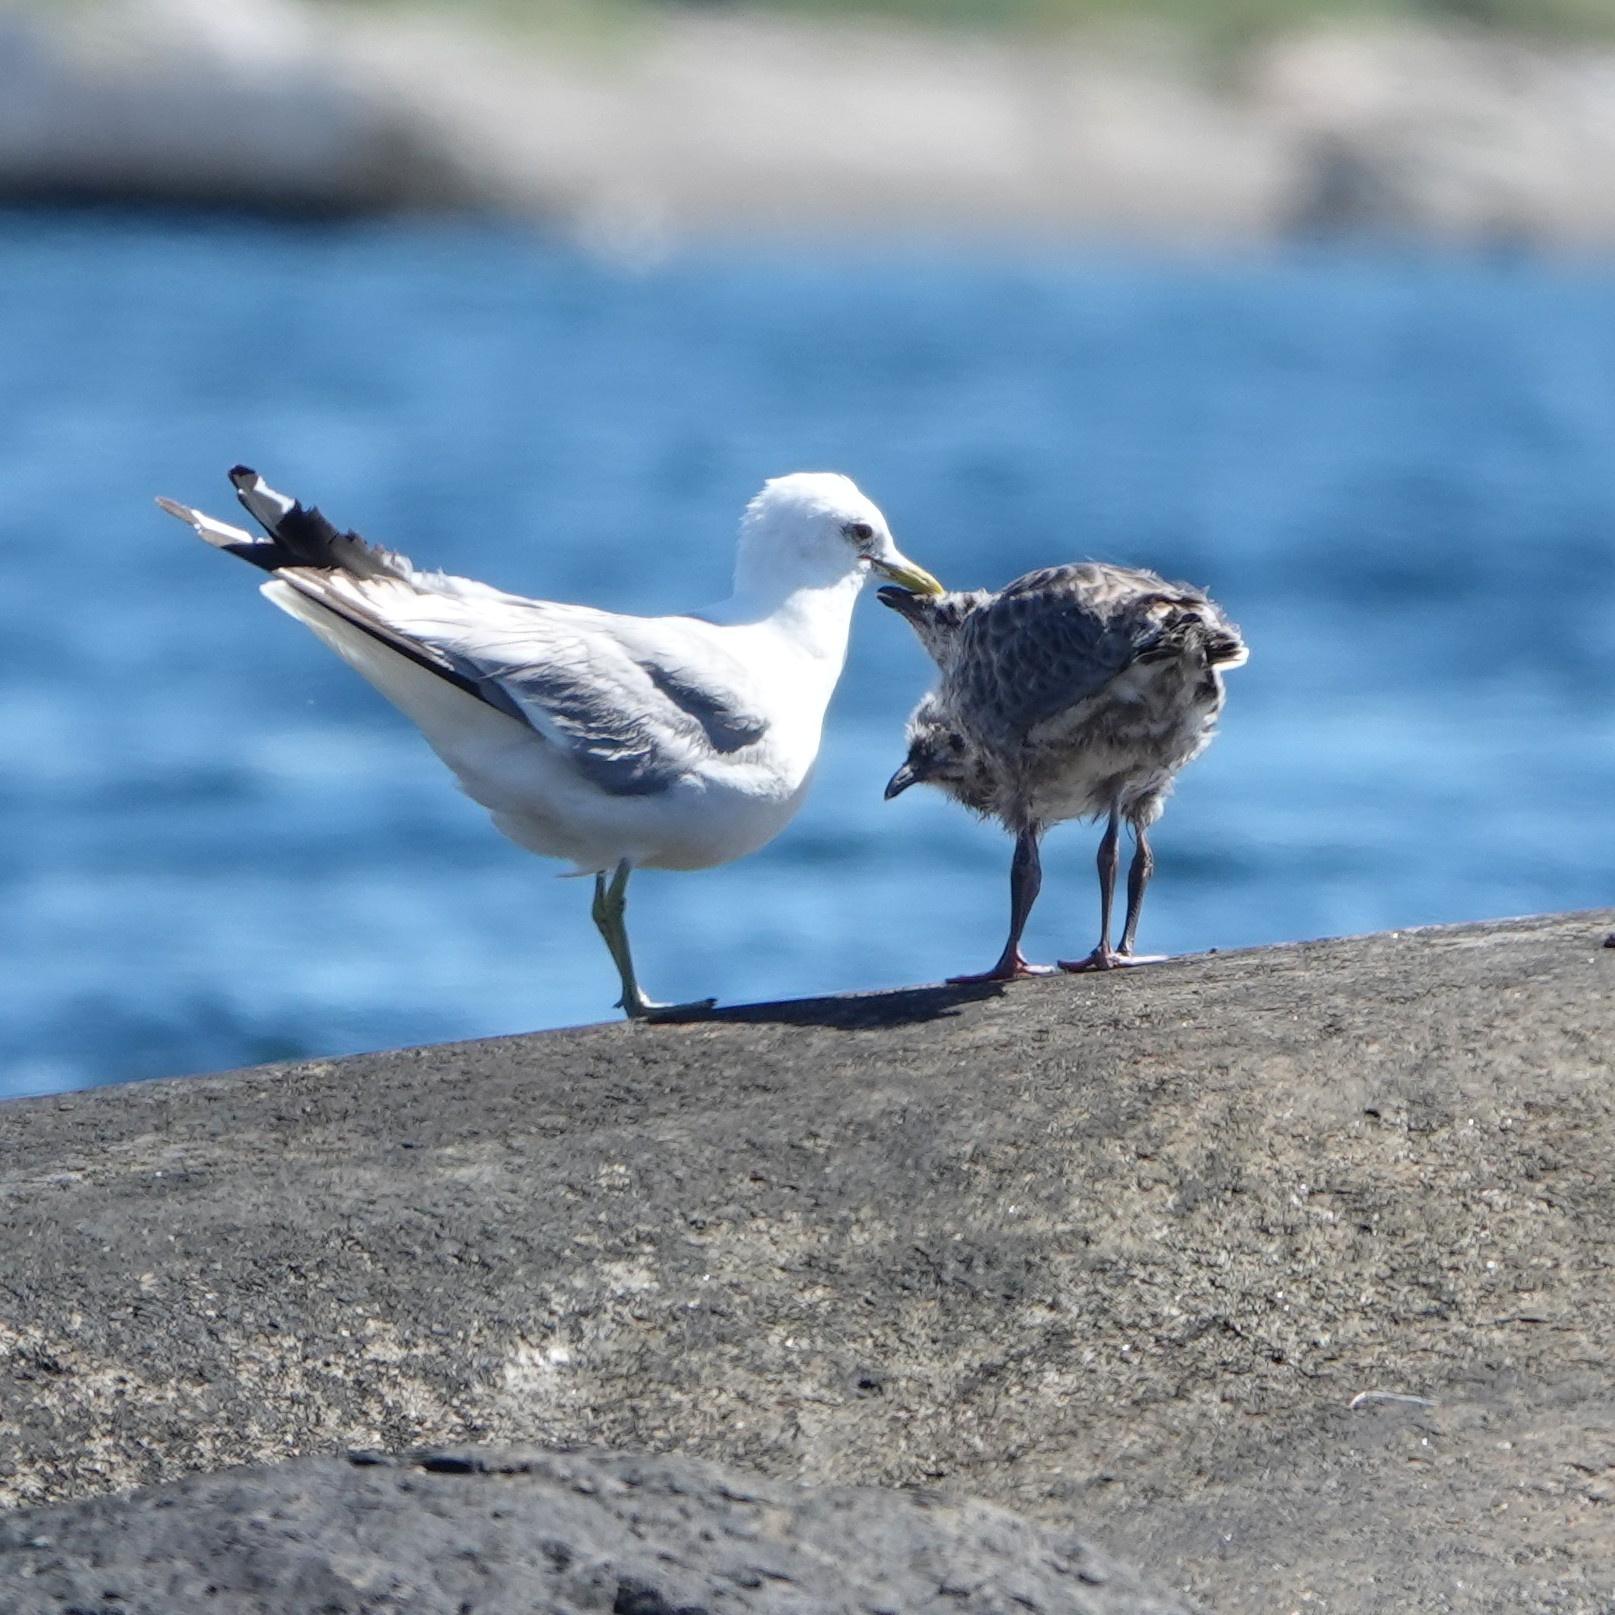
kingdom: Animalia
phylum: Chordata
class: Aves
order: Charadriiformes
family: Laridae
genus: Larus
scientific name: Larus canus
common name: Mew gull
